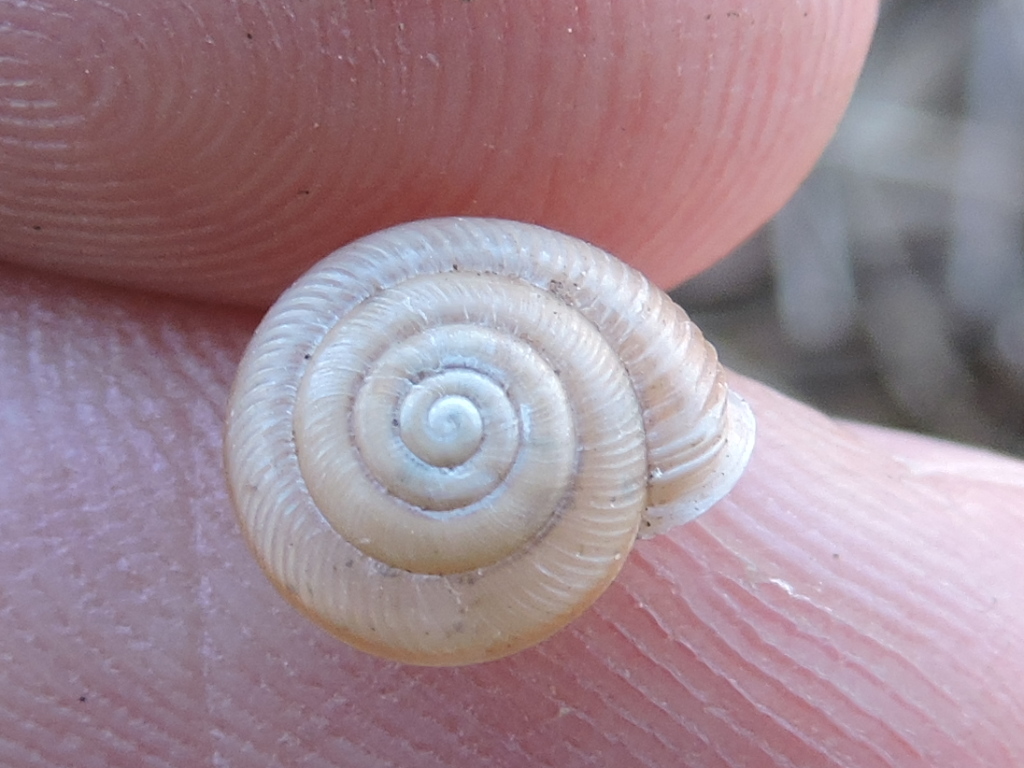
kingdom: Animalia
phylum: Mollusca
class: Gastropoda
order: Stylommatophora
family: Polygyridae
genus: Linisa
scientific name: Linisa texasiana
